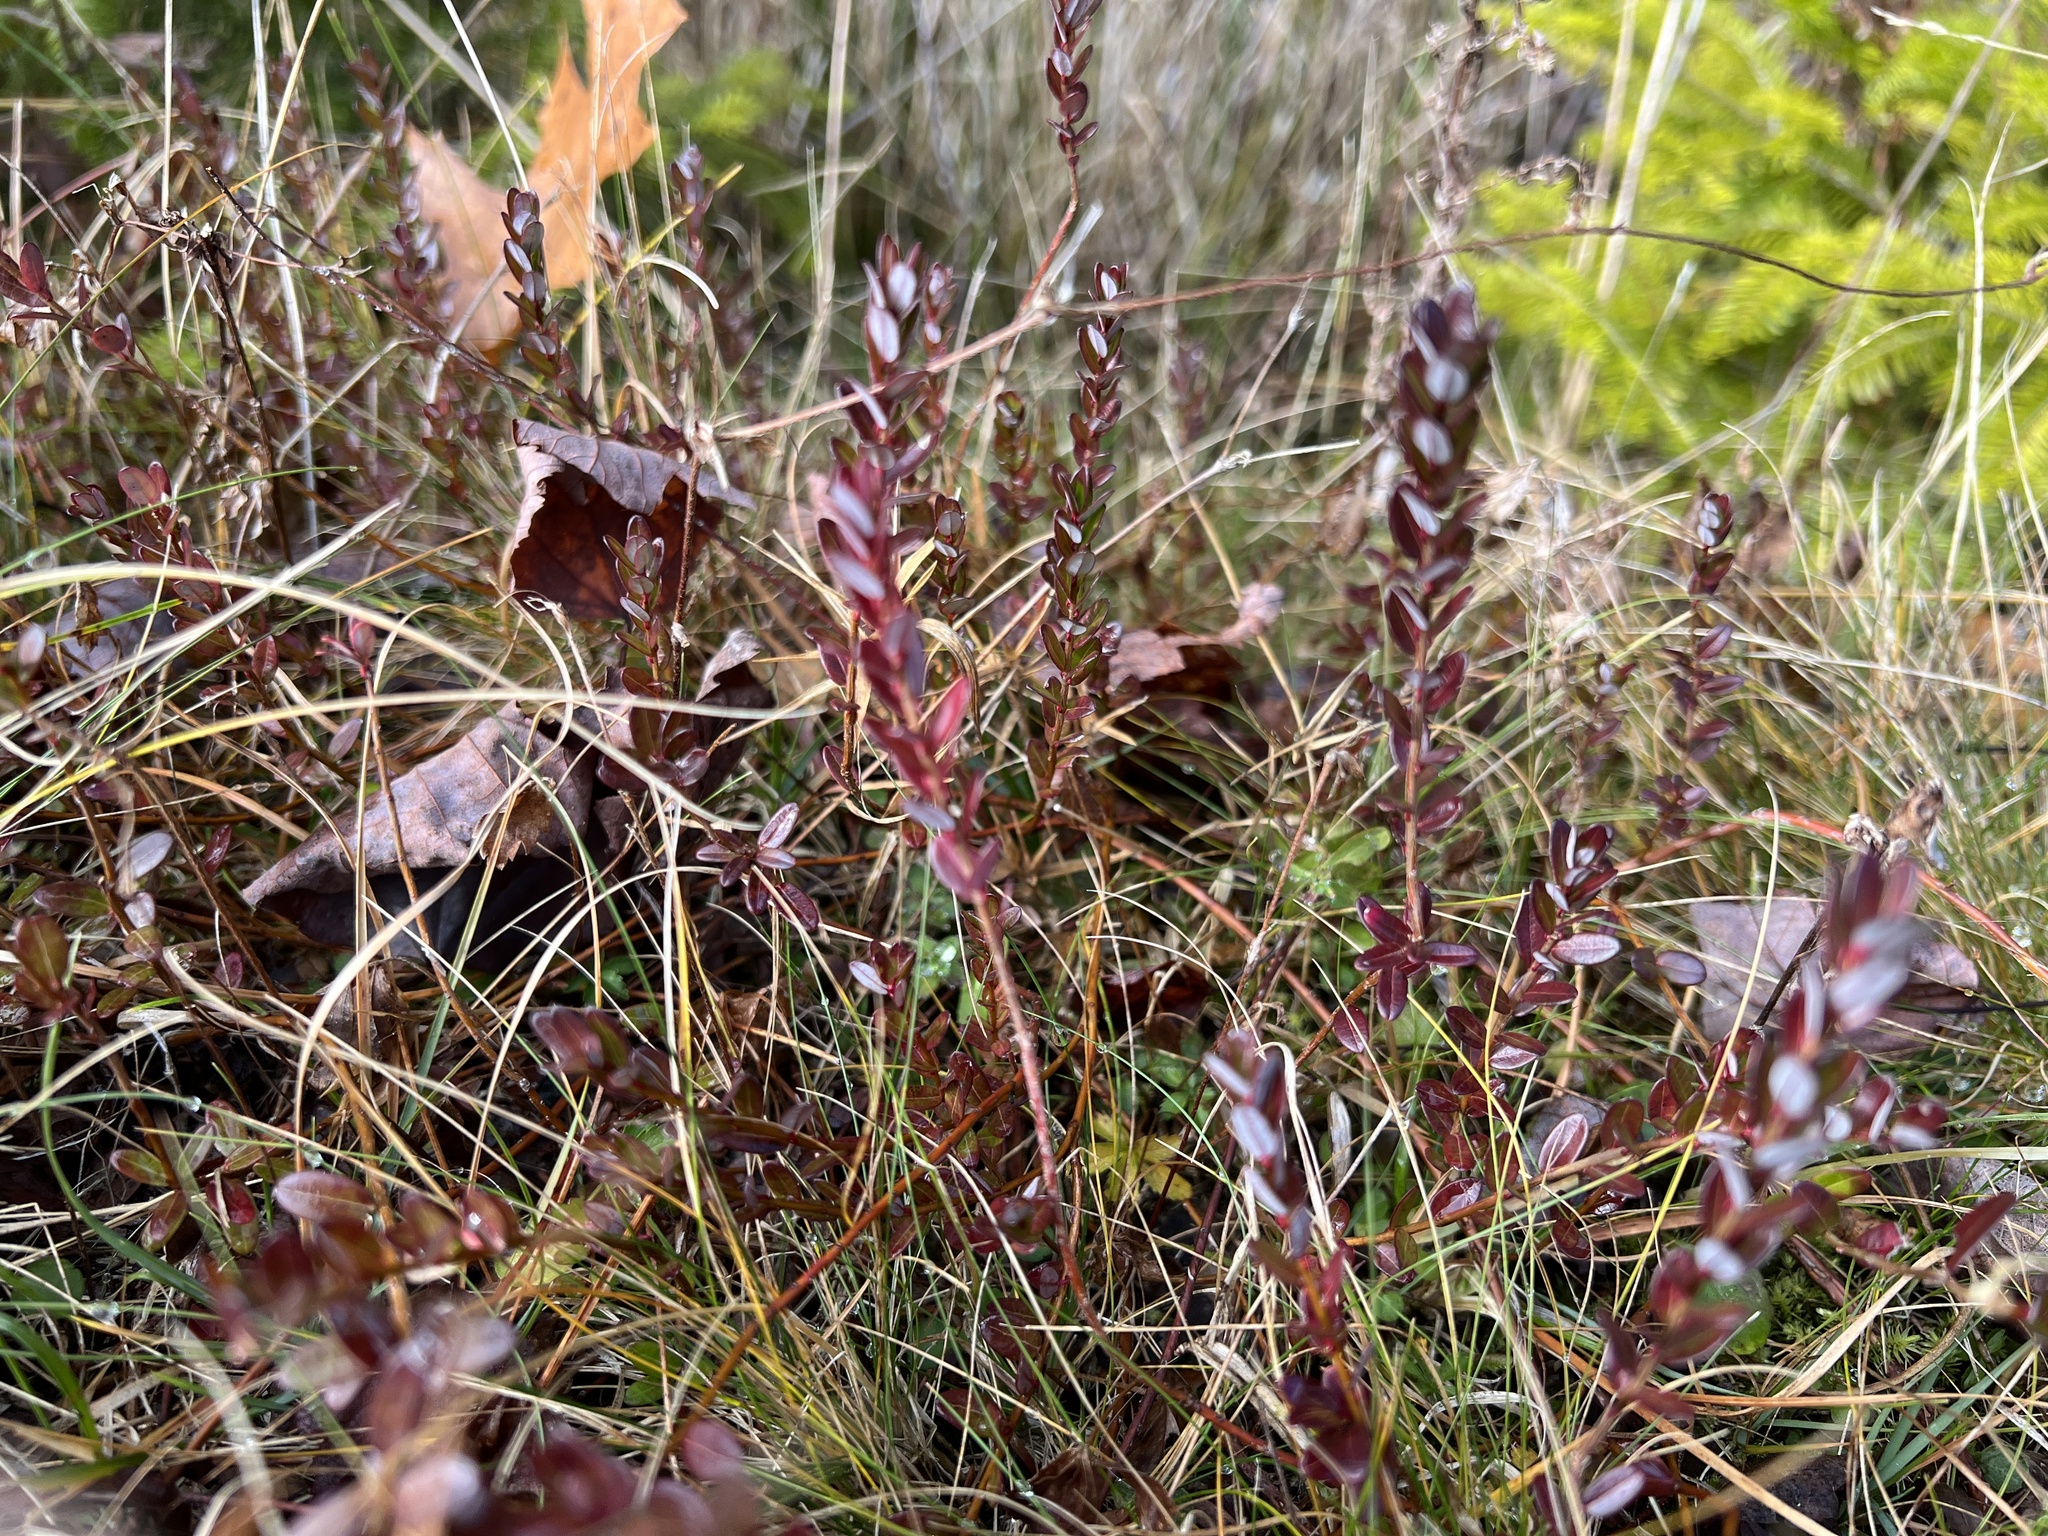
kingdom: Plantae
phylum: Tracheophyta
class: Magnoliopsida
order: Ericales
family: Ericaceae
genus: Vaccinium
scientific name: Vaccinium macrocarpon
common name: American cranberry
